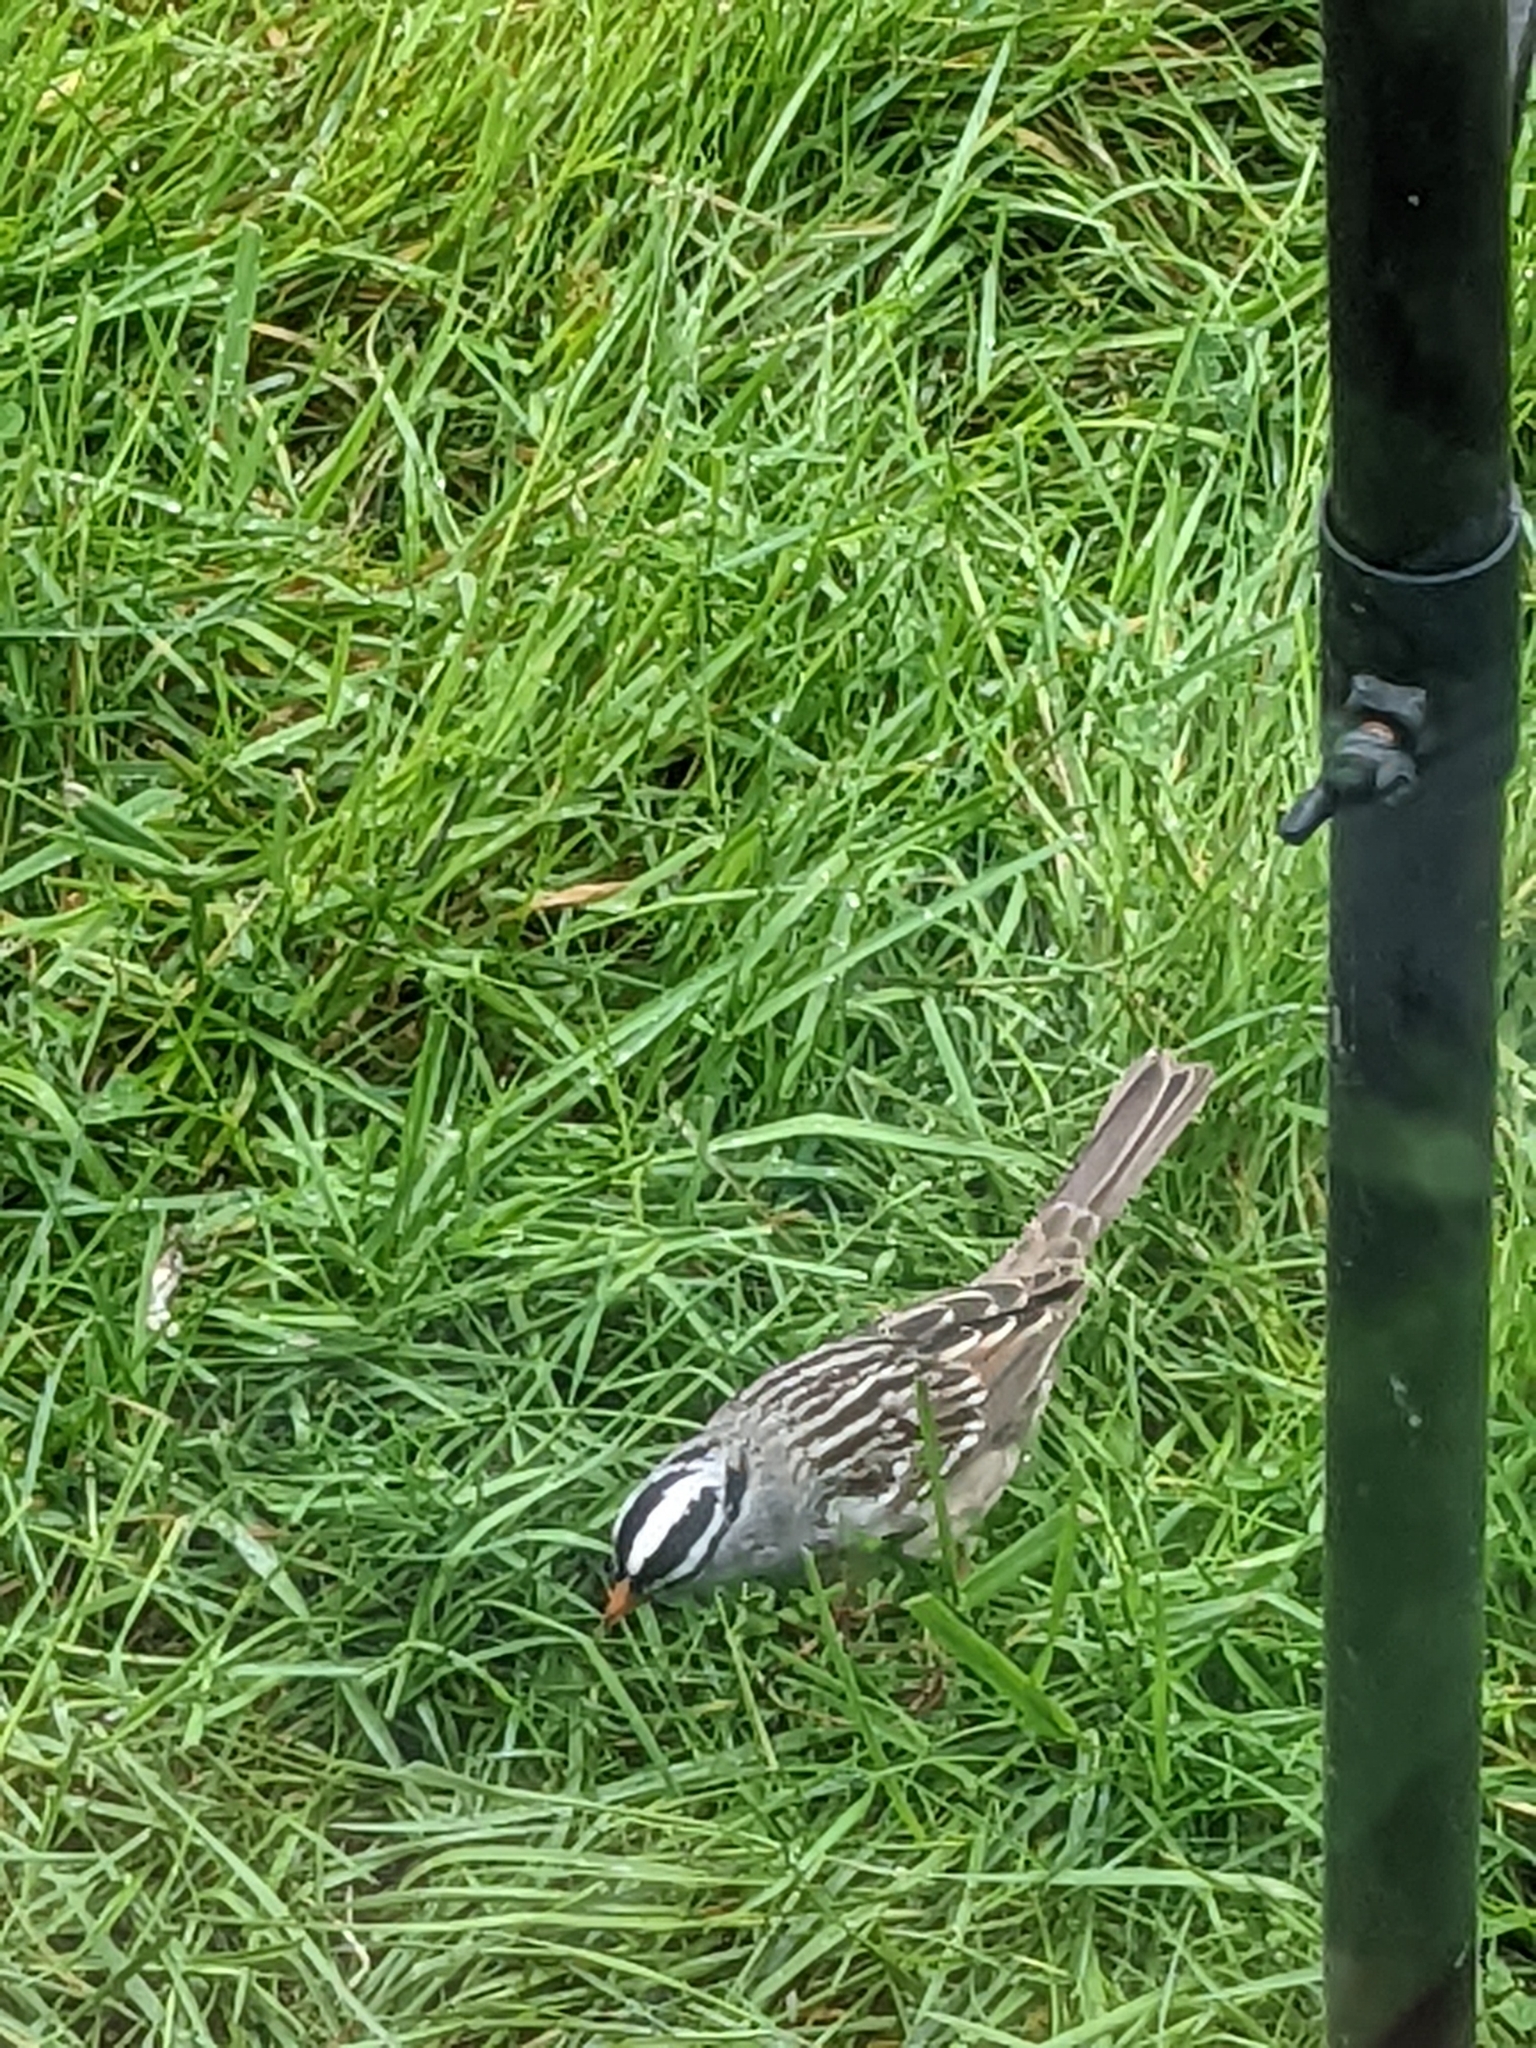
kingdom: Animalia
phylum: Chordata
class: Aves
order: Passeriformes
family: Passerellidae
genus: Zonotrichia
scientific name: Zonotrichia leucophrys
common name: White-crowned sparrow
